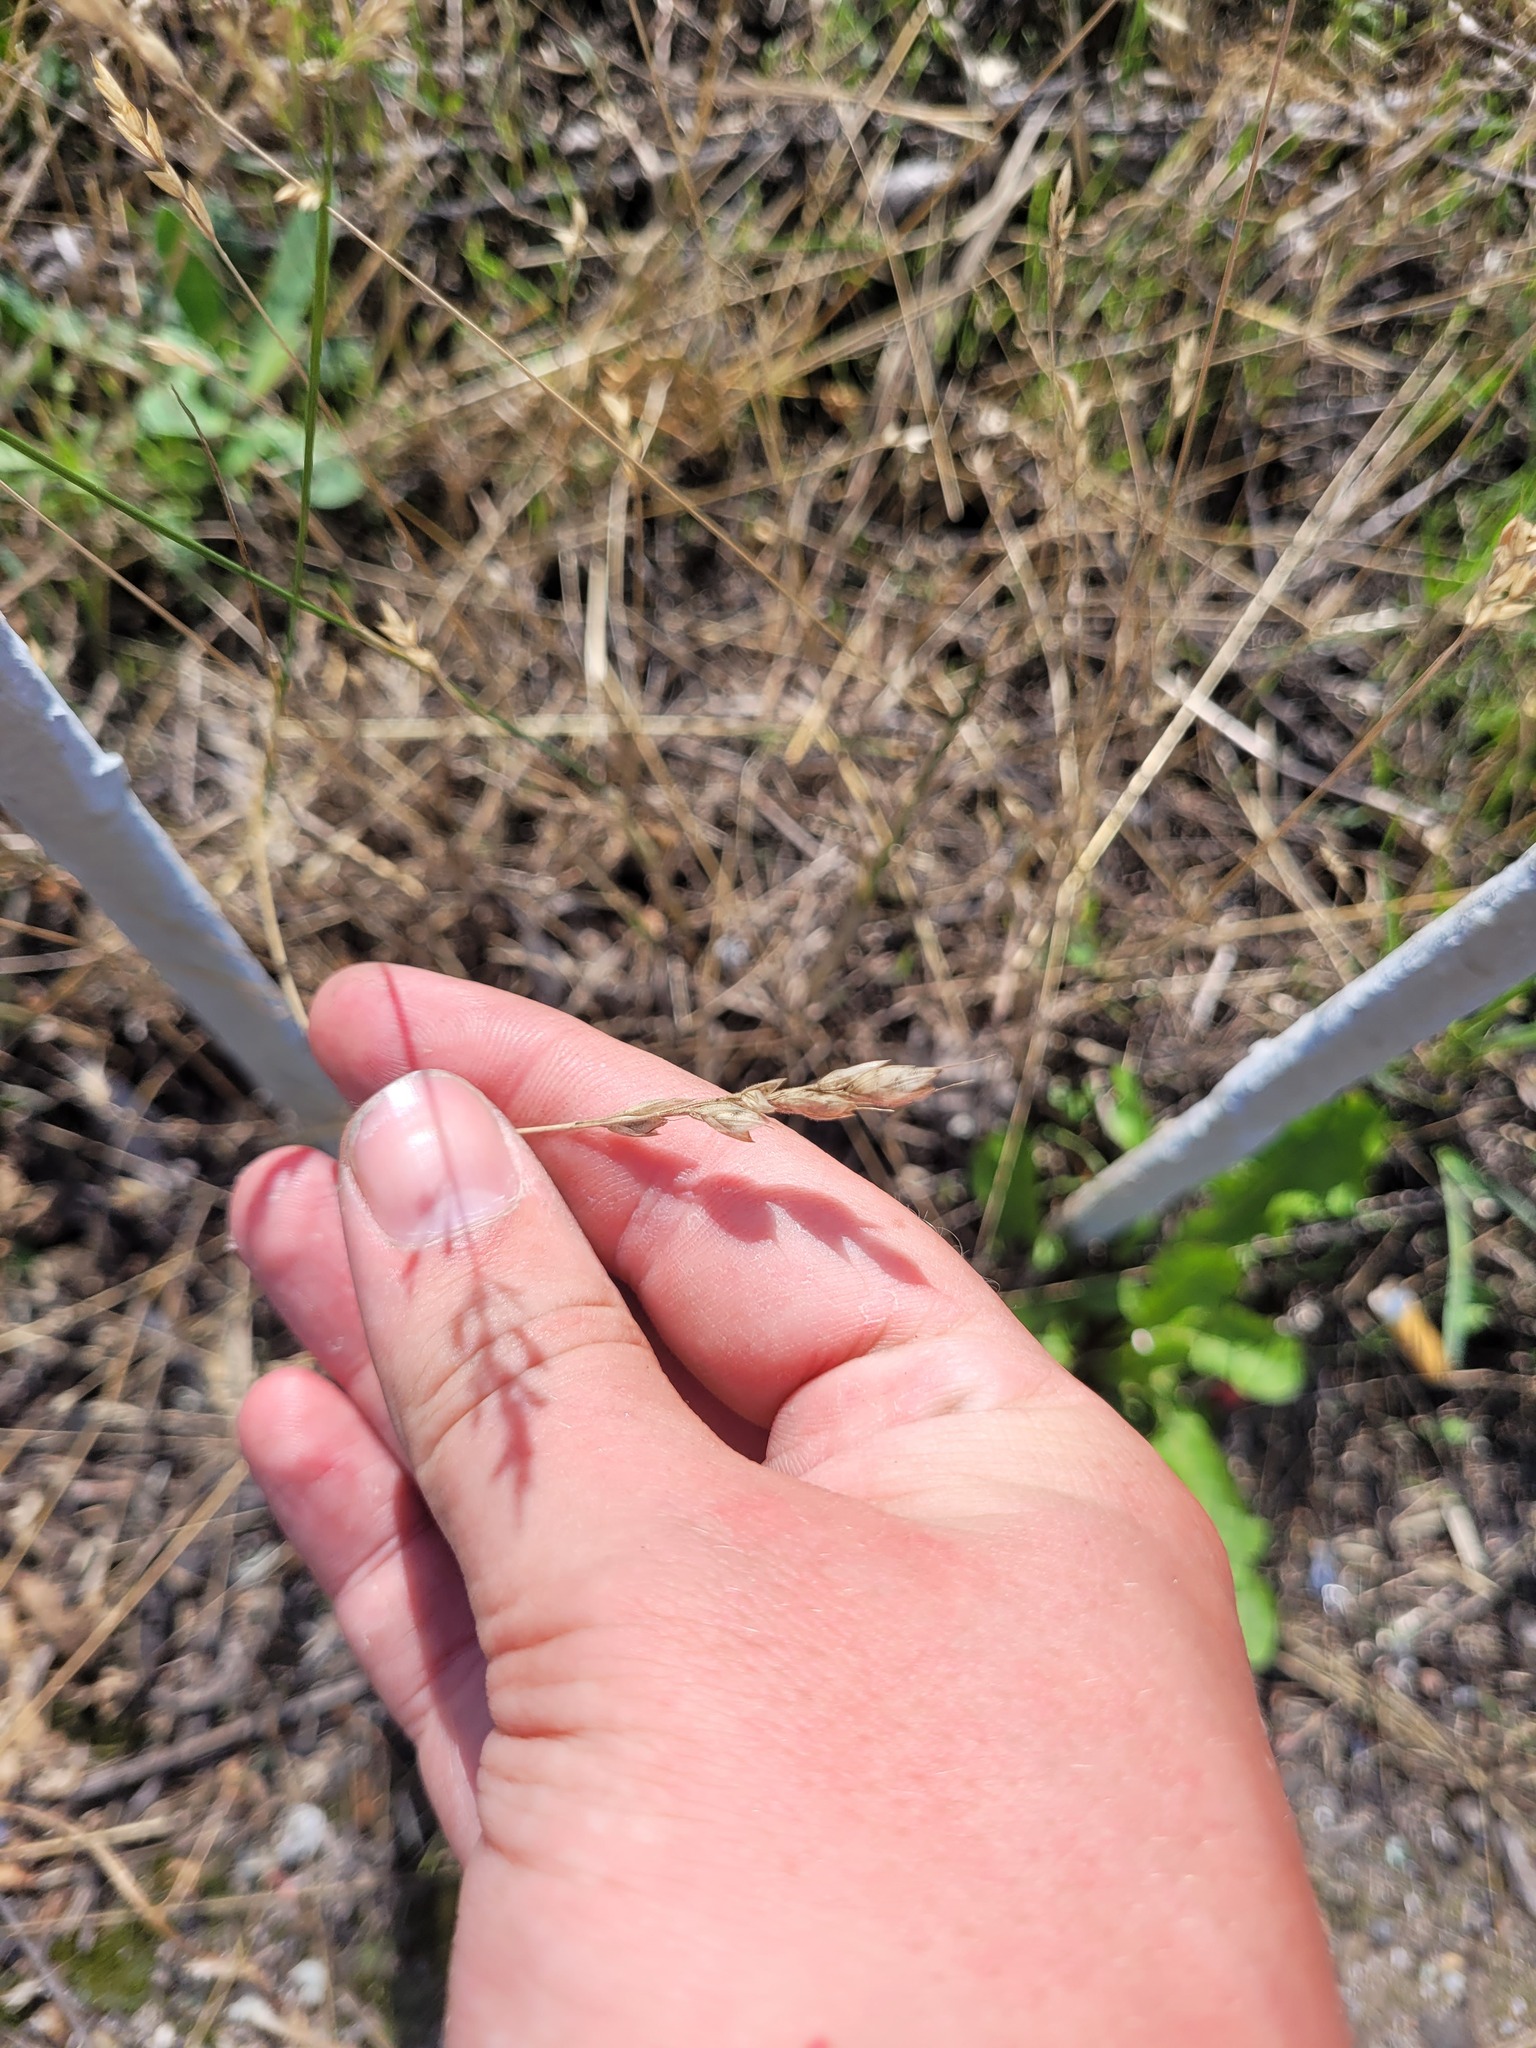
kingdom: Plantae
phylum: Tracheophyta
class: Liliopsida
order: Poales
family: Poaceae
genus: Bromus
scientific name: Bromus hordeaceus
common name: Soft brome
